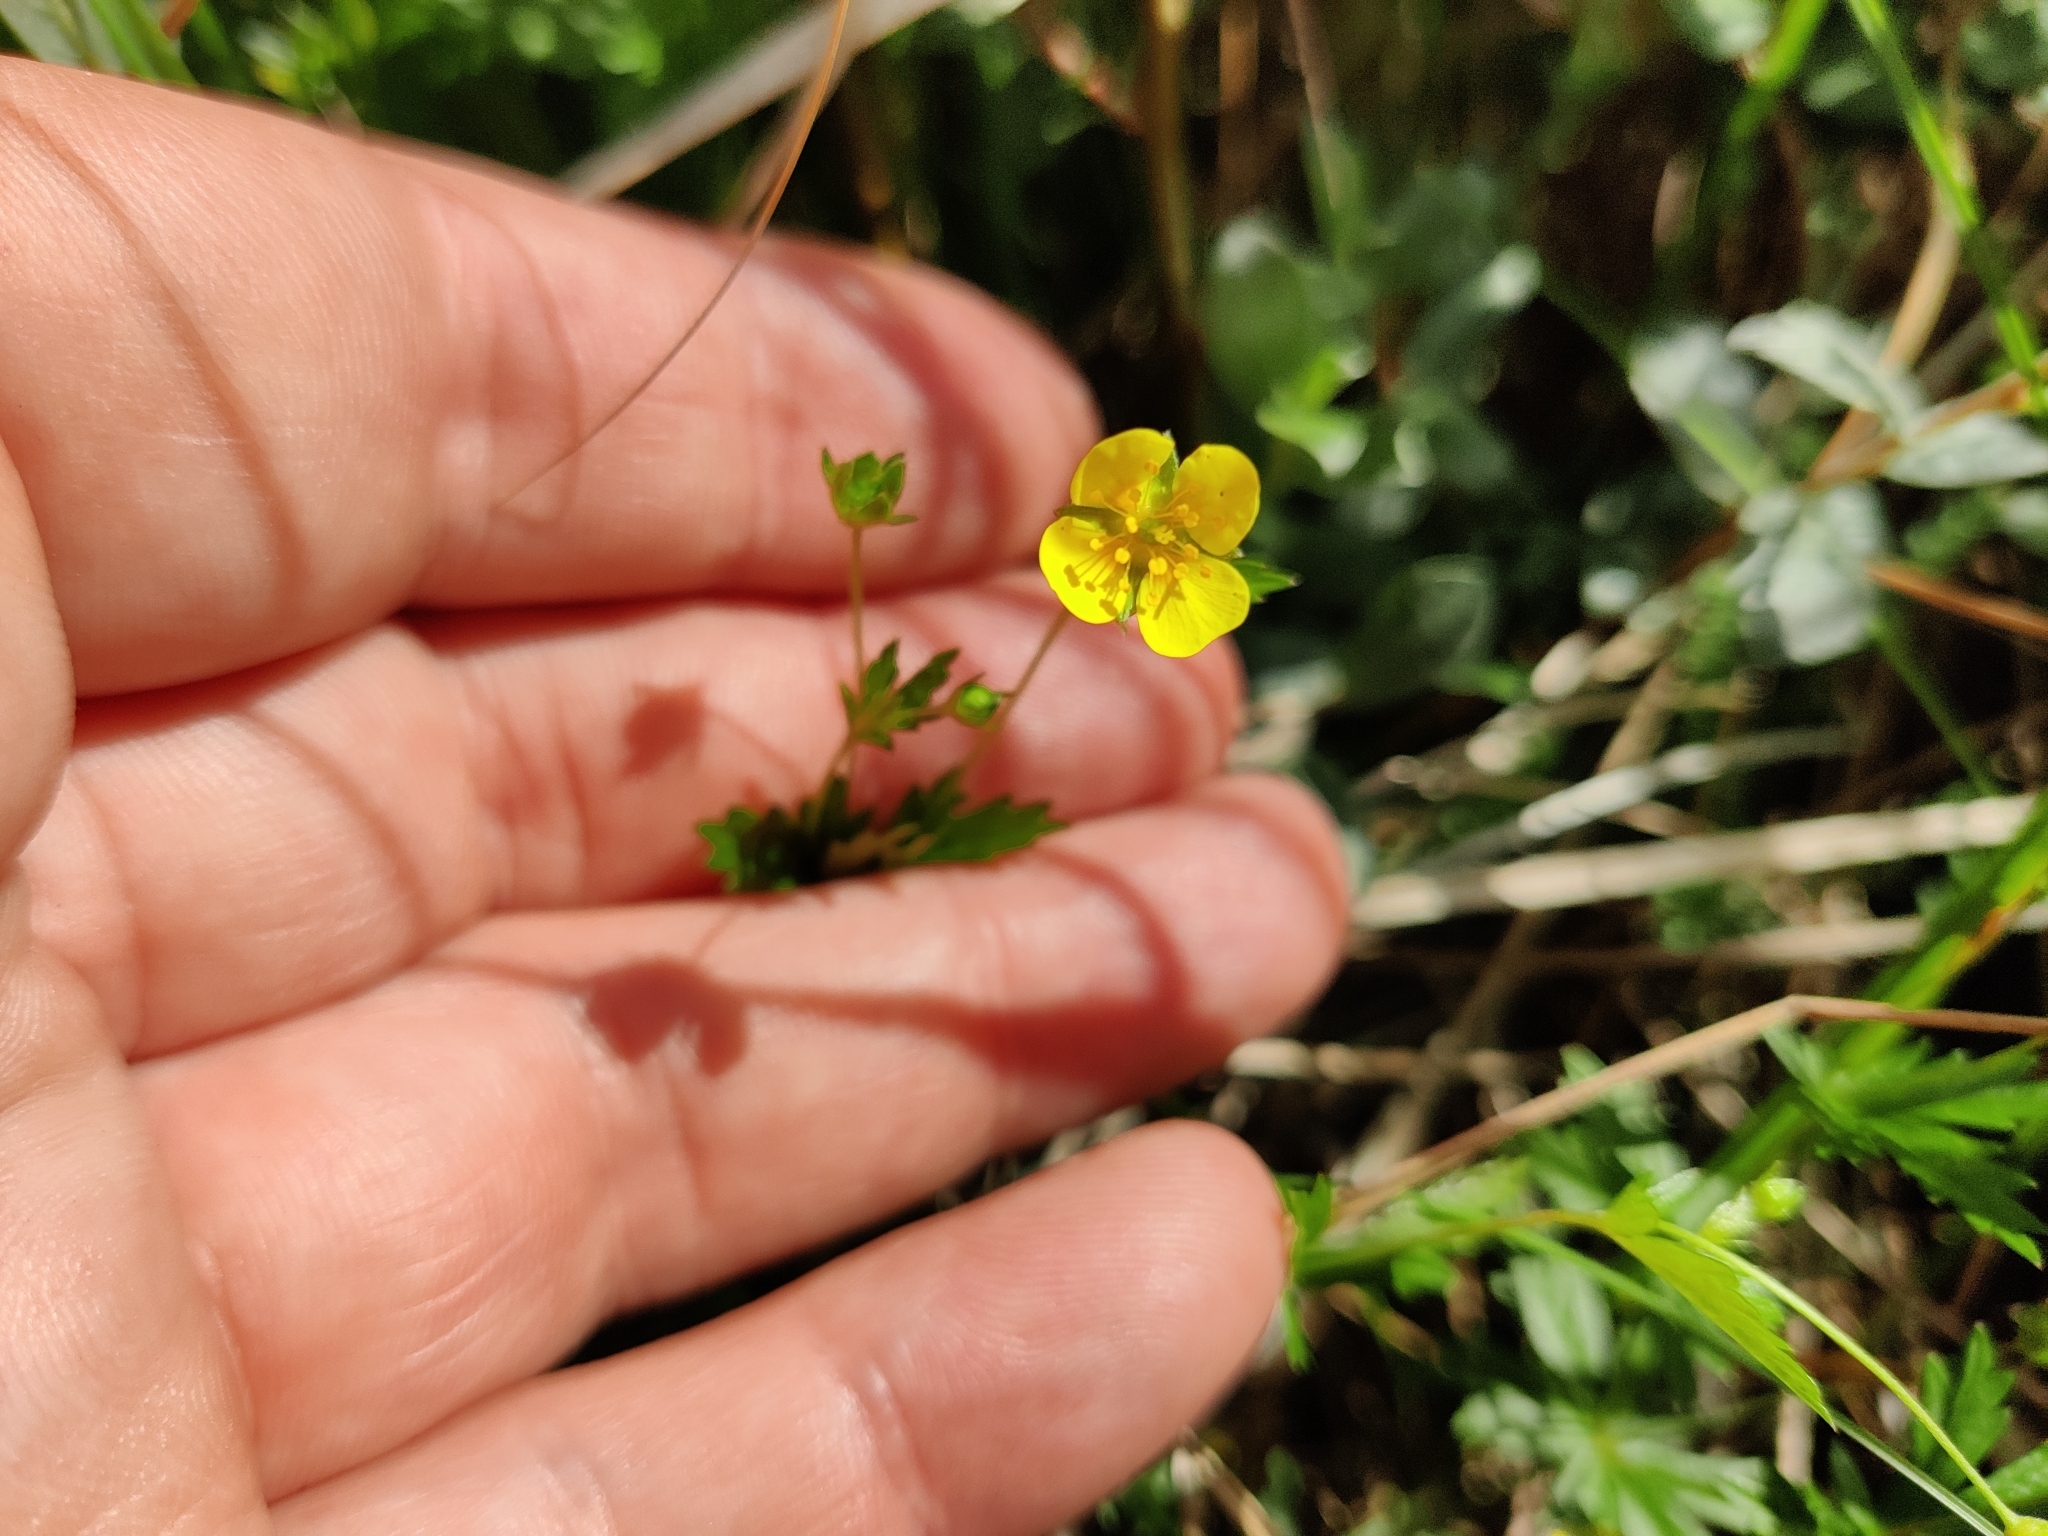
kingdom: Plantae
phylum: Tracheophyta
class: Magnoliopsida
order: Rosales
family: Rosaceae
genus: Potentilla
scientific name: Potentilla erecta
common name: Tormentil
